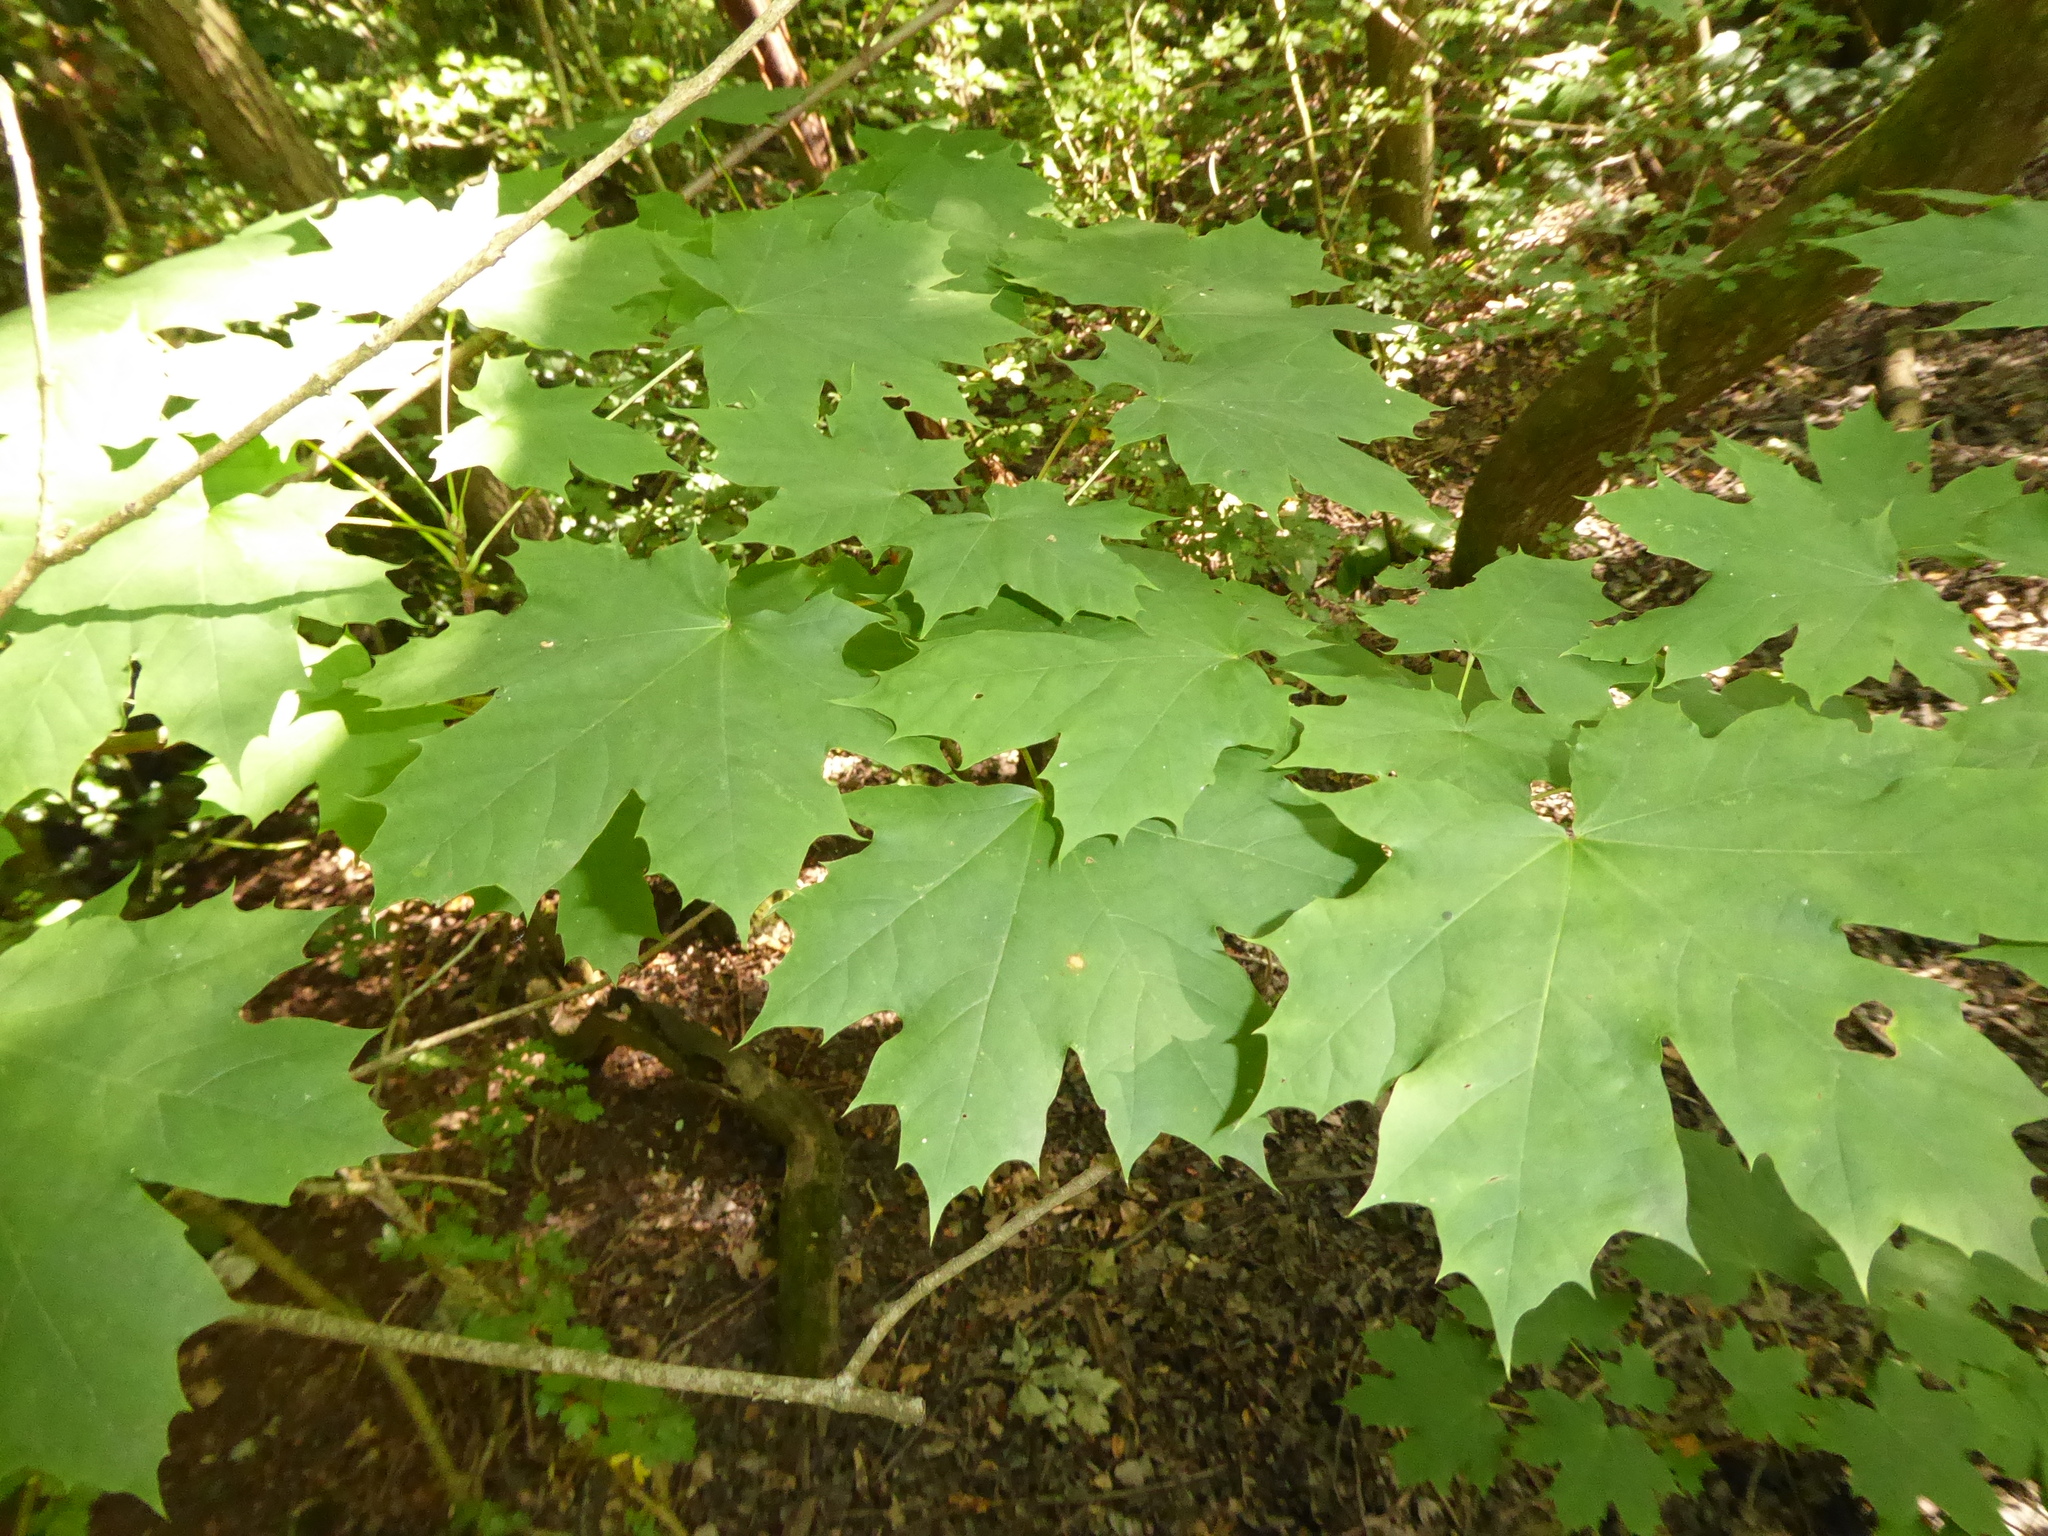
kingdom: Plantae
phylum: Tracheophyta
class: Magnoliopsida
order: Sapindales
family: Sapindaceae
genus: Acer
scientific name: Acer platanoides
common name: Norway maple
